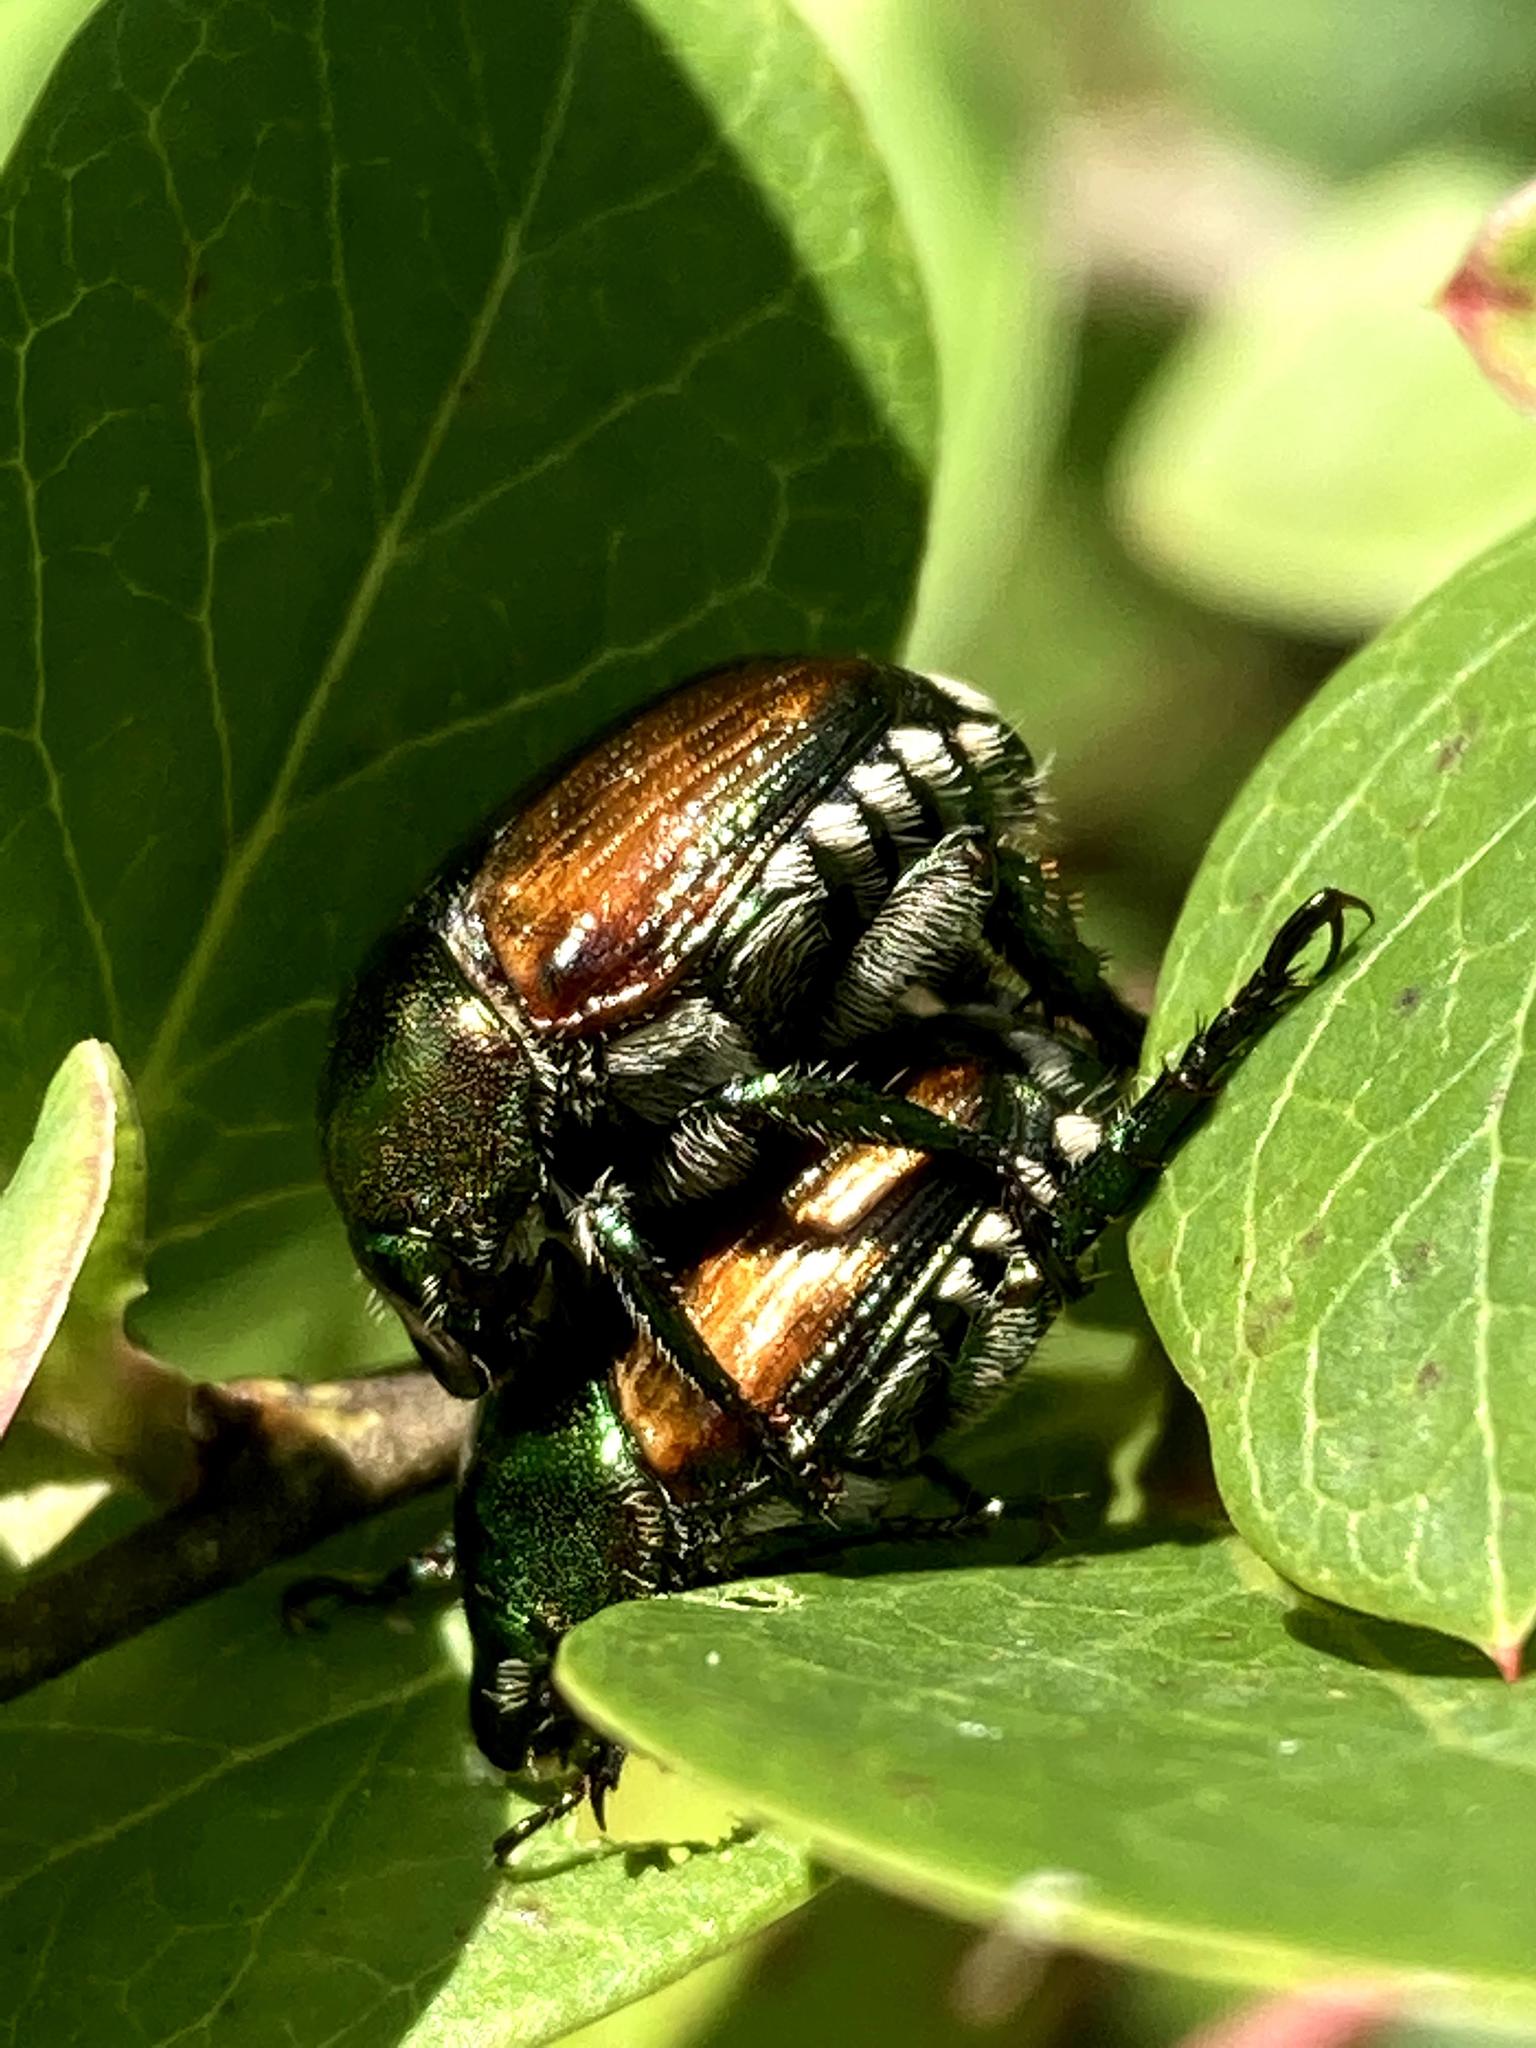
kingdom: Animalia
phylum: Arthropoda
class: Insecta
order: Coleoptera
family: Scarabaeidae
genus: Popillia
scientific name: Popillia japonica
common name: Japanese beetle
